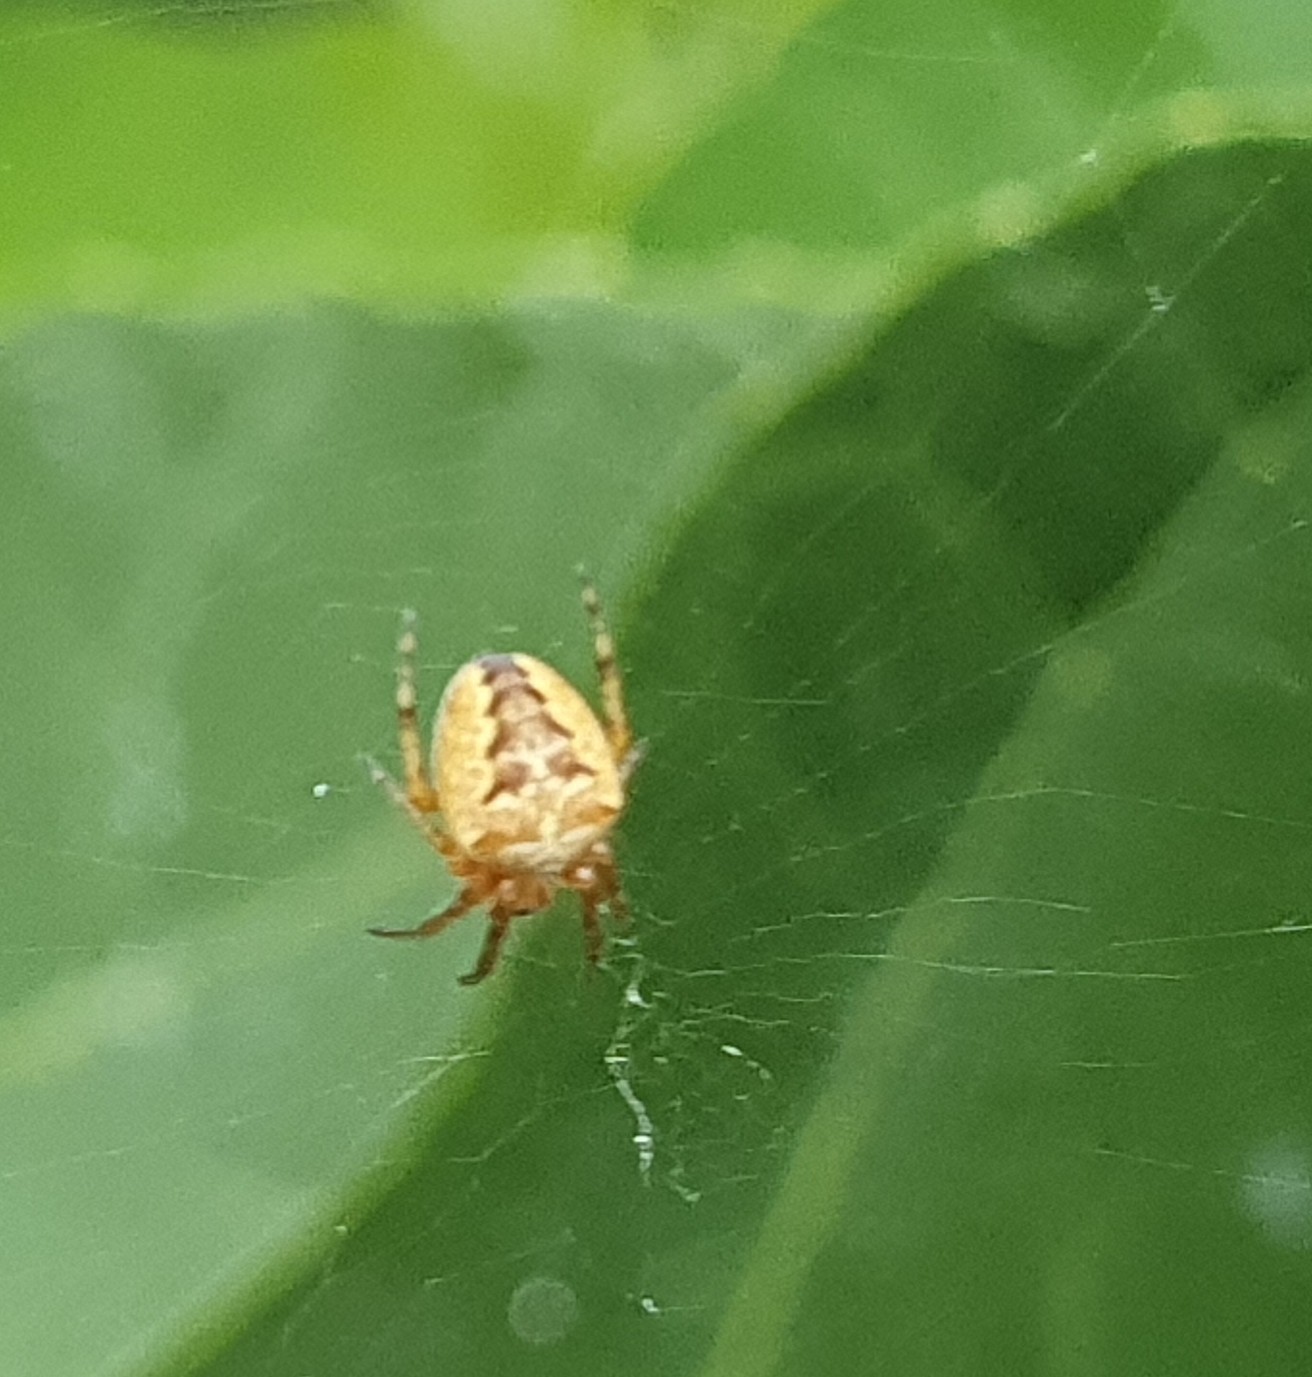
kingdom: Animalia
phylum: Arthropoda
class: Arachnida
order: Araneae
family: Araneidae
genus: Araneus
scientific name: Araneus diadematus
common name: Cross orbweaver
